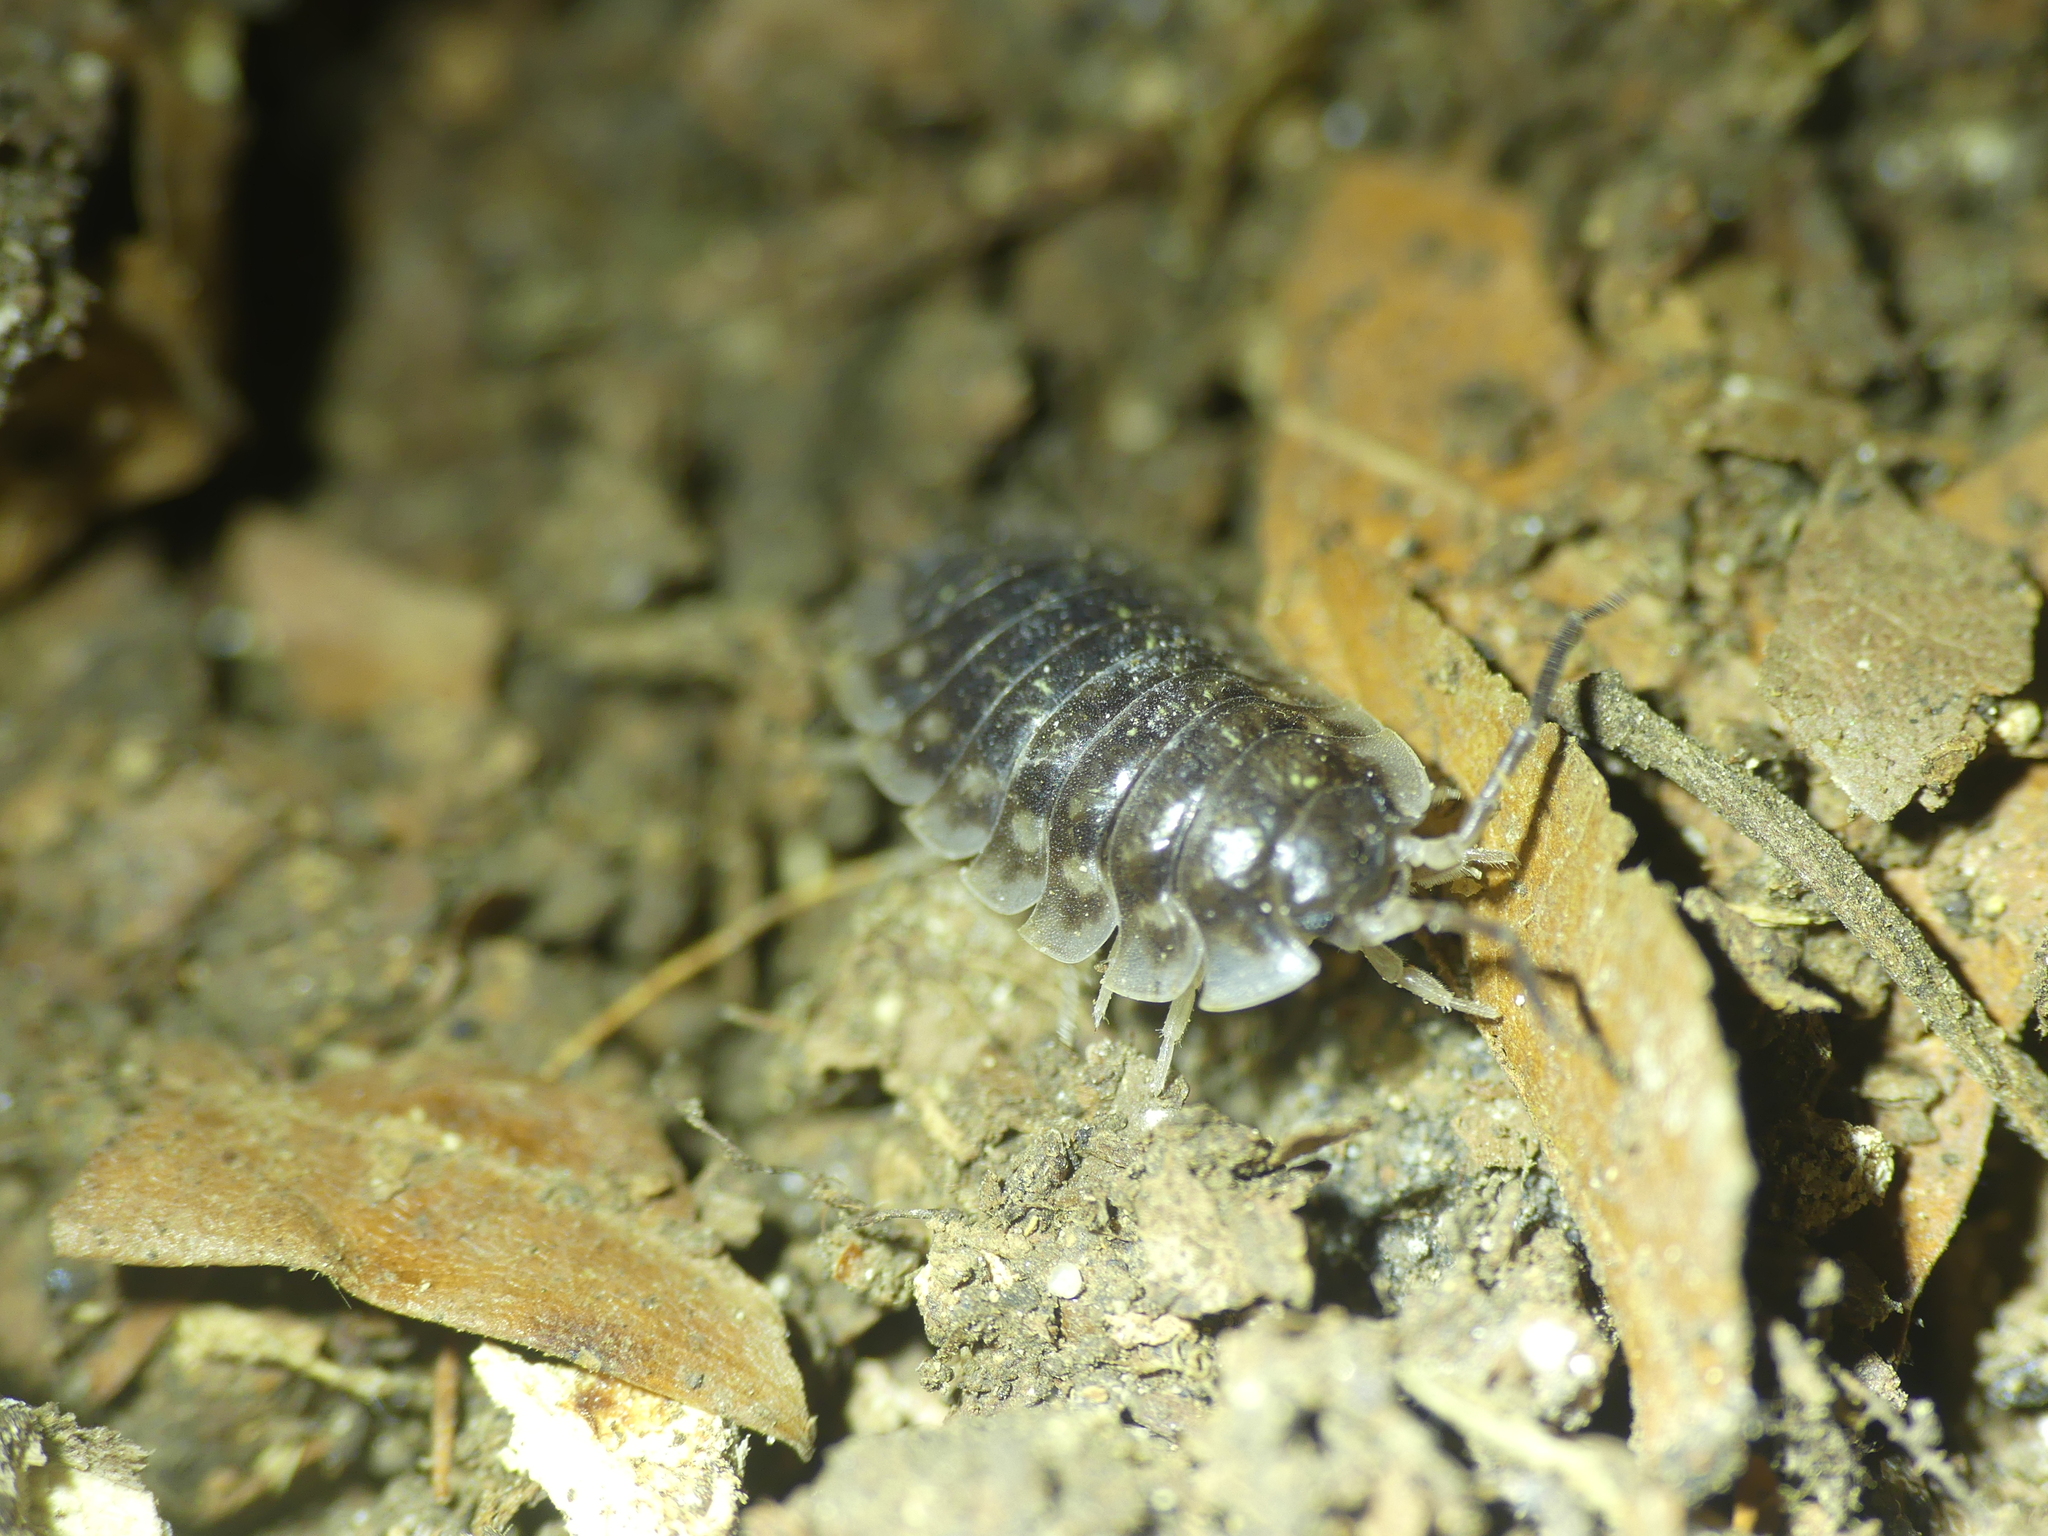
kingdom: Animalia
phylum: Arthropoda
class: Malacostraca
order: Isopoda
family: Oniscidae
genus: Oniscus
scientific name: Oniscus asellus
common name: Common shiny woodlouse
